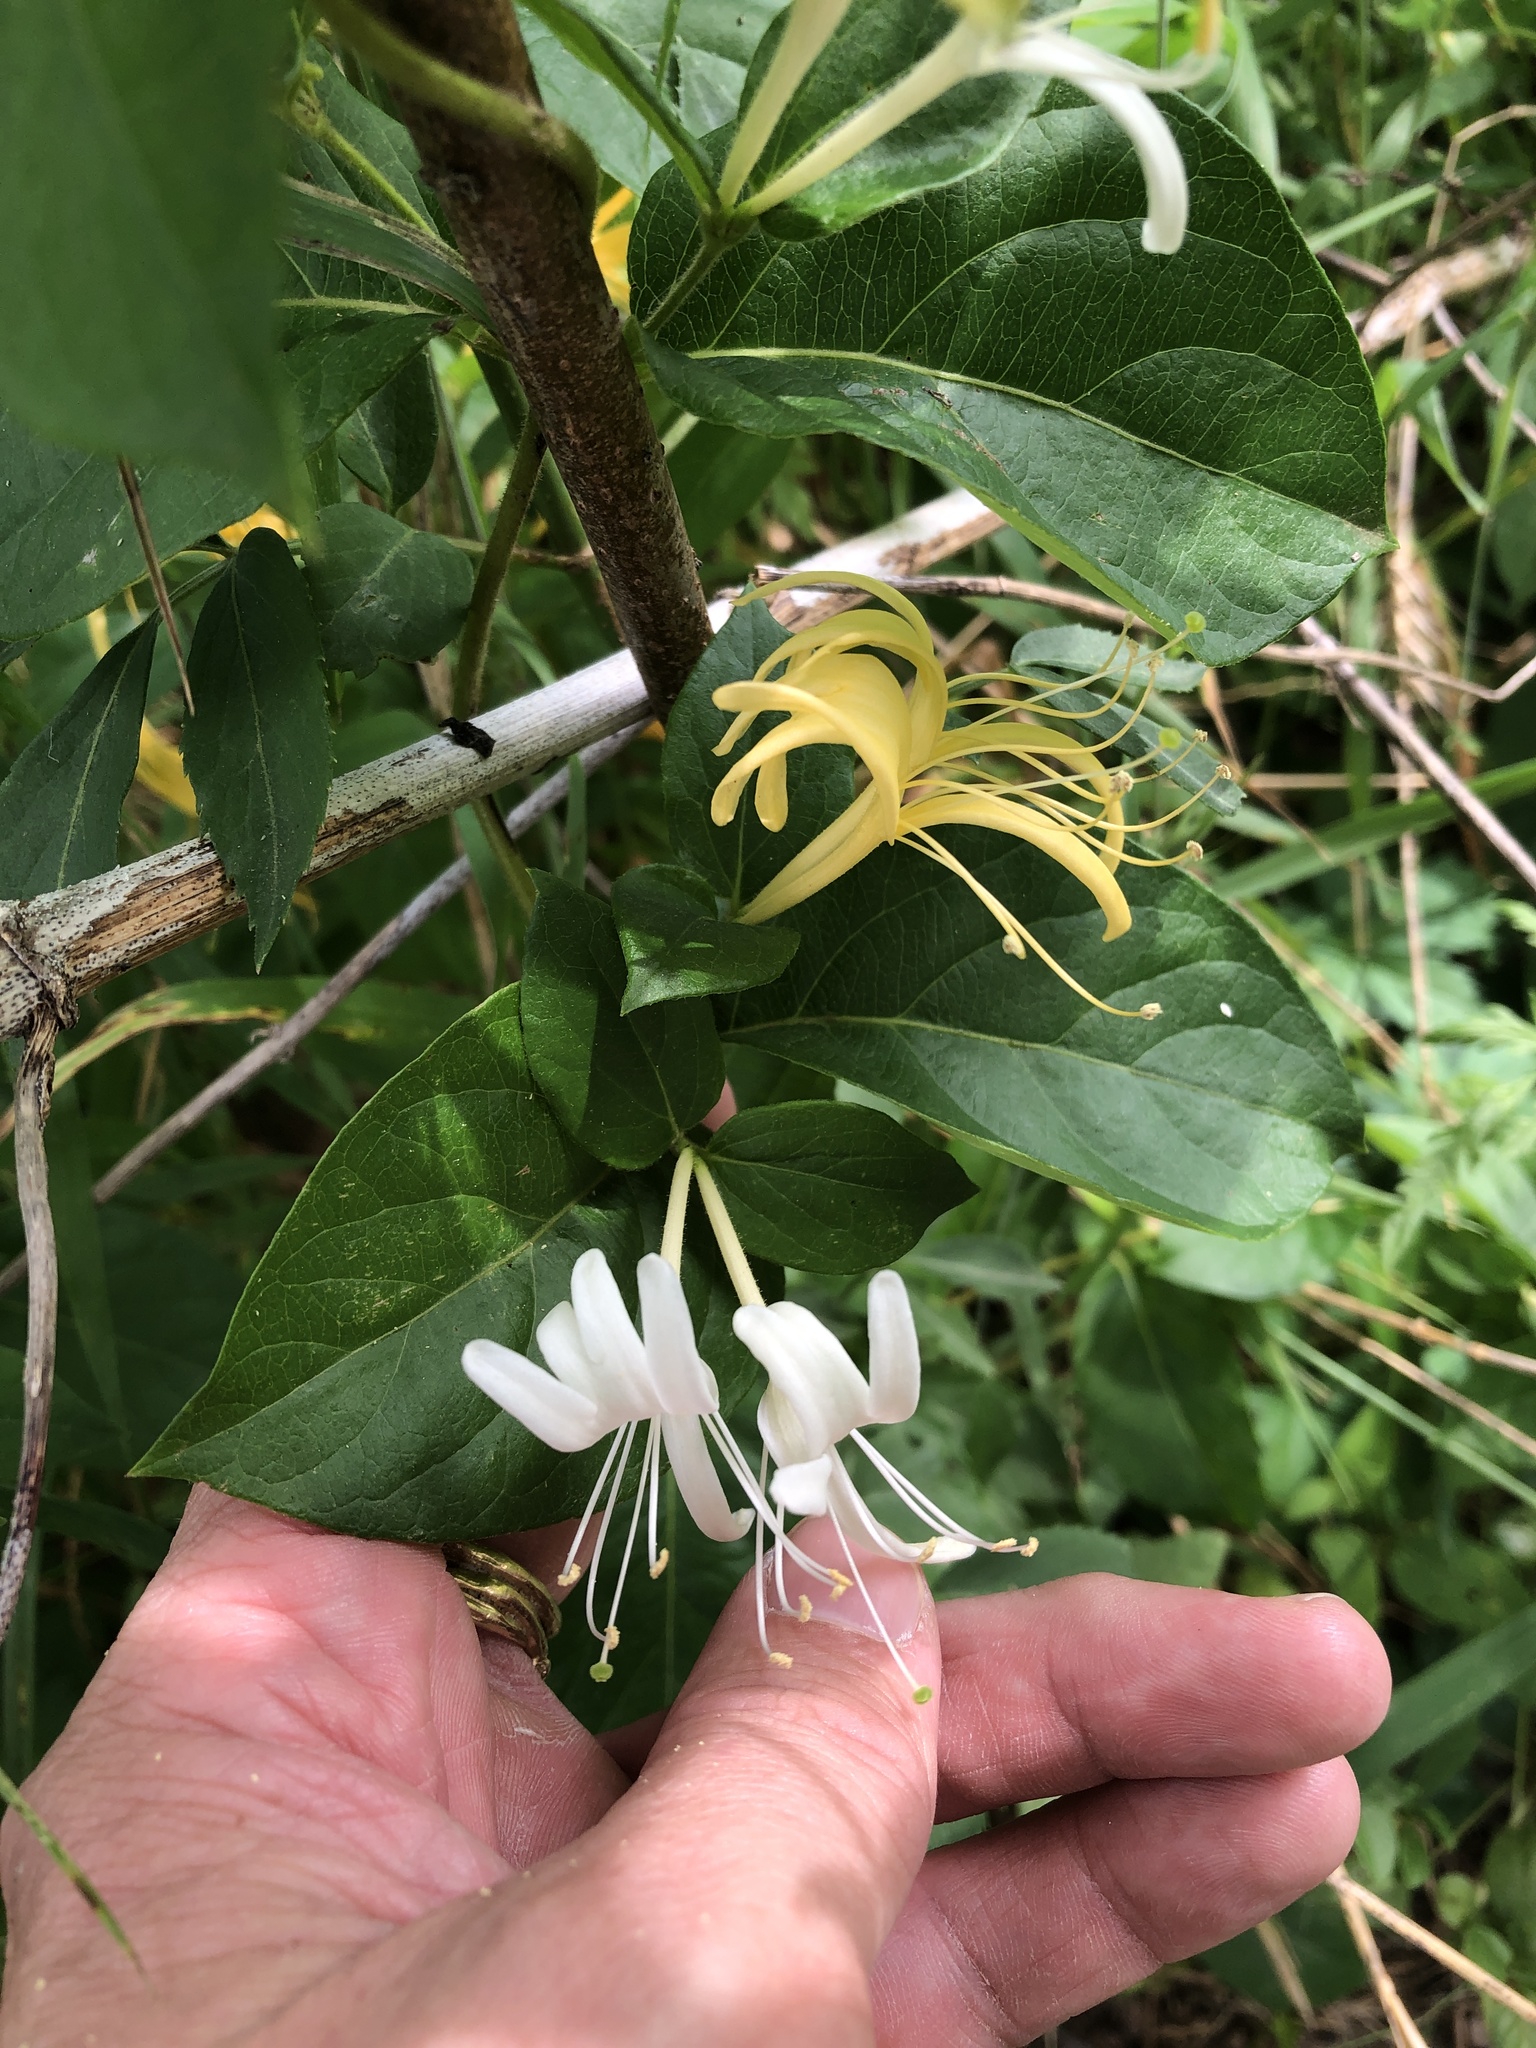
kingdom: Plantae
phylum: Tracheophyta
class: Magnoliopsida
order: Dipsacales
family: Caprifoliaceae
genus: Lonicera
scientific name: Lonicera japonica
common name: Japanese honeysuckle
